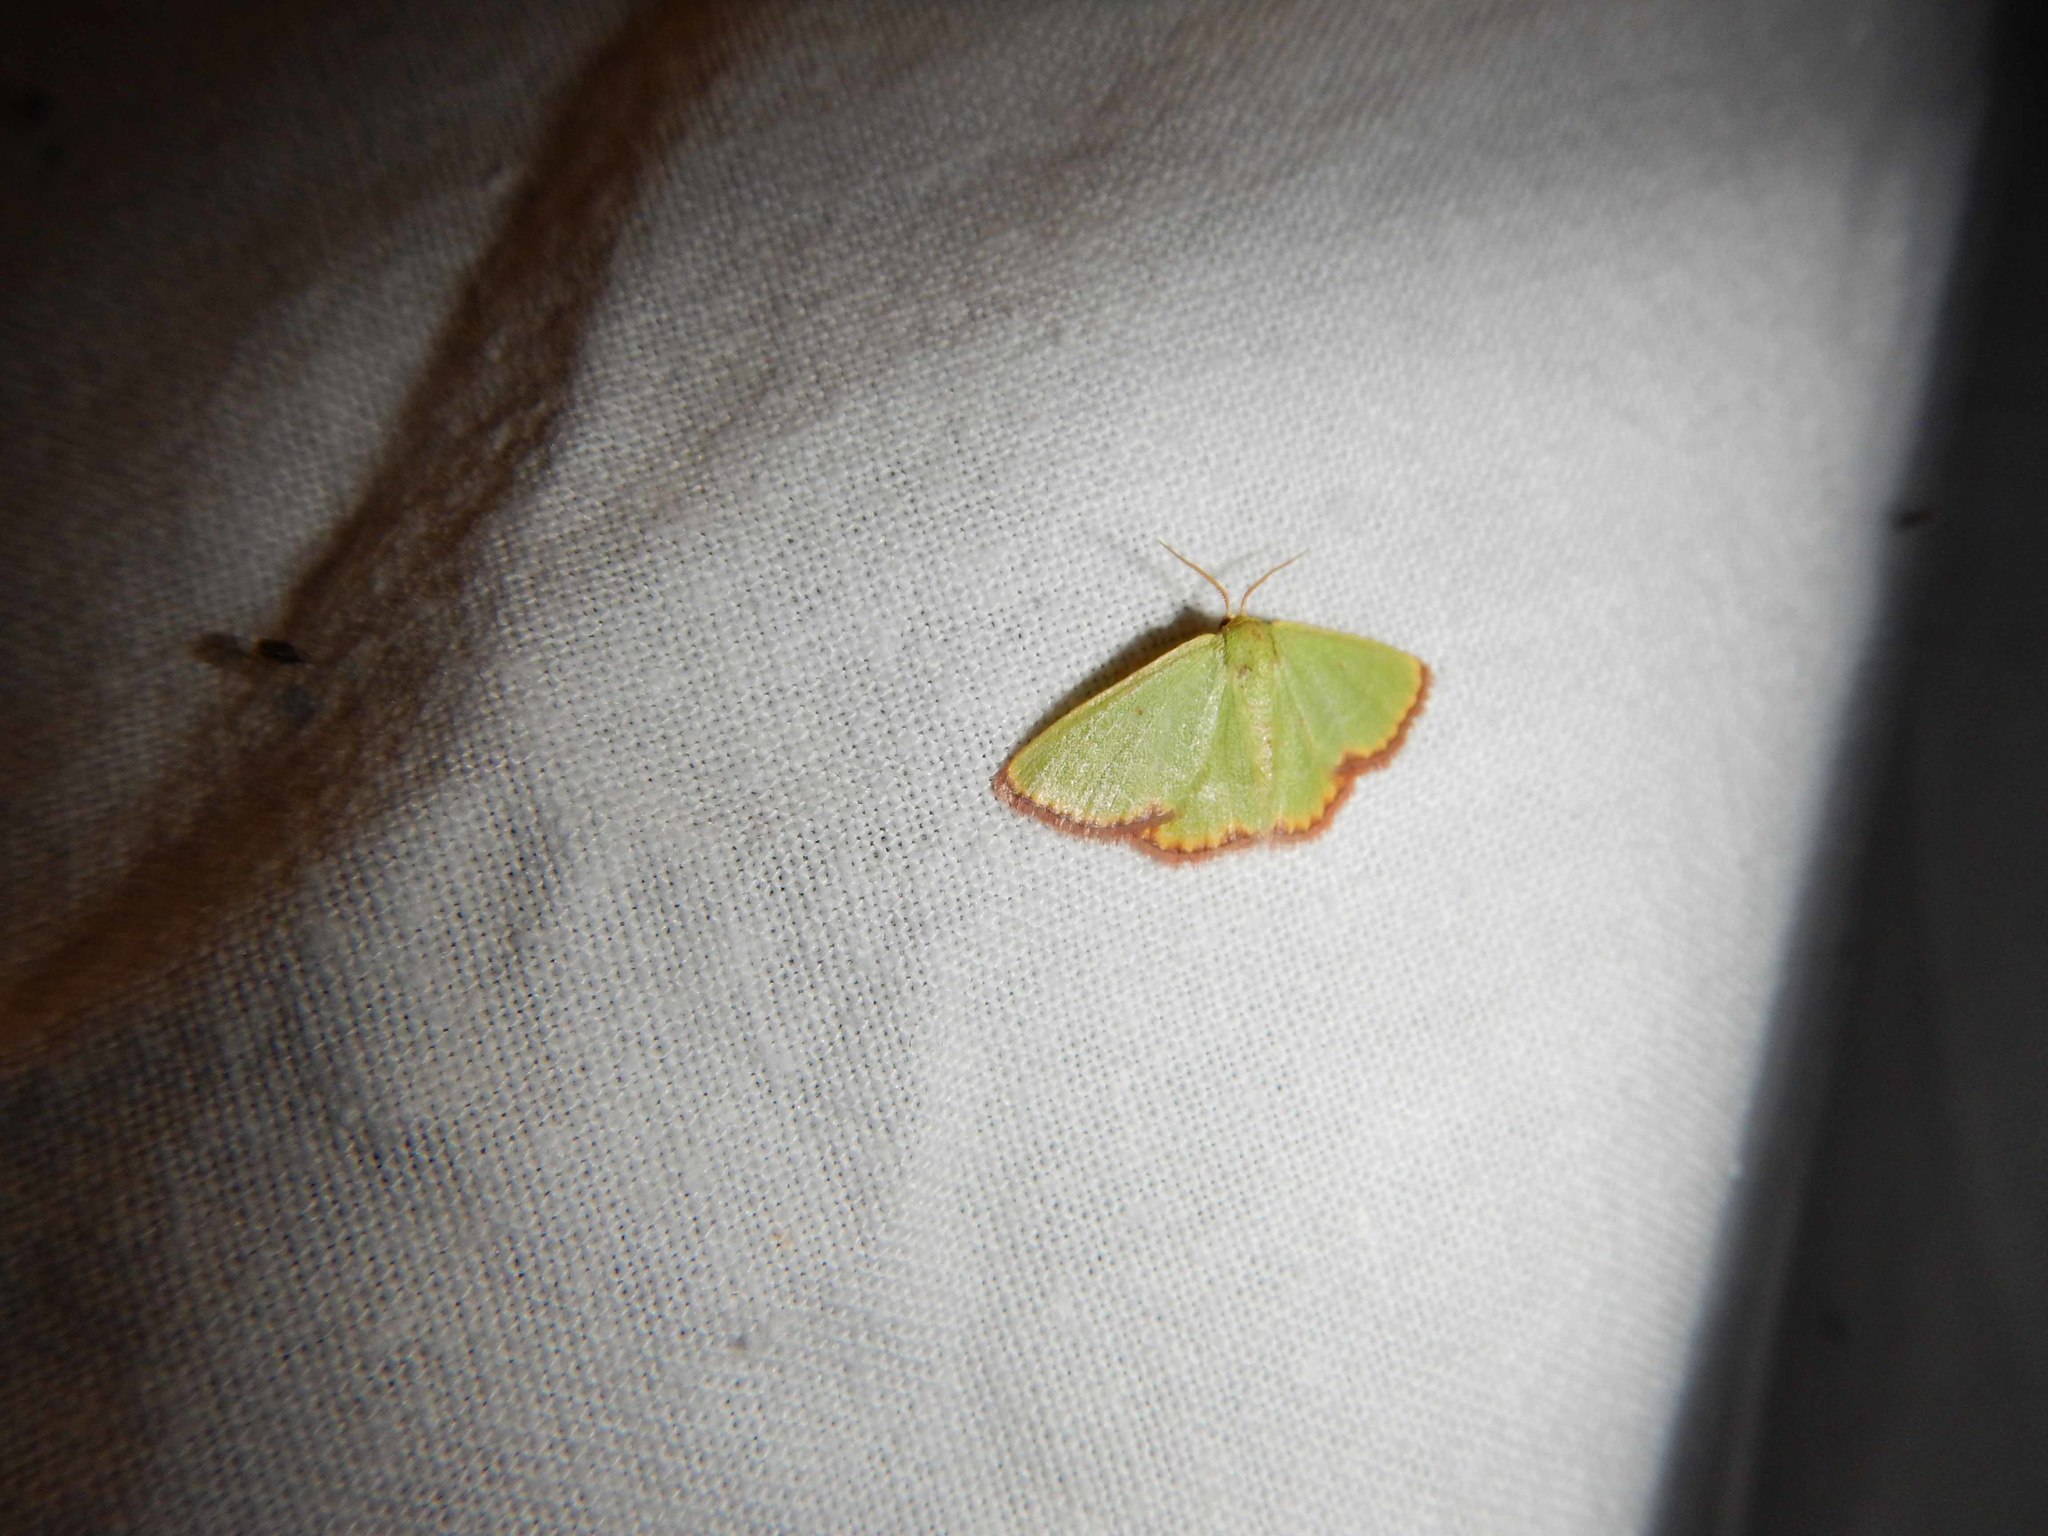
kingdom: Animalia
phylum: Arthropoda
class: Insecta
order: Lepidoptera
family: Geometridae
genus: Eucrostes
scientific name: Eucrostes indigenata
